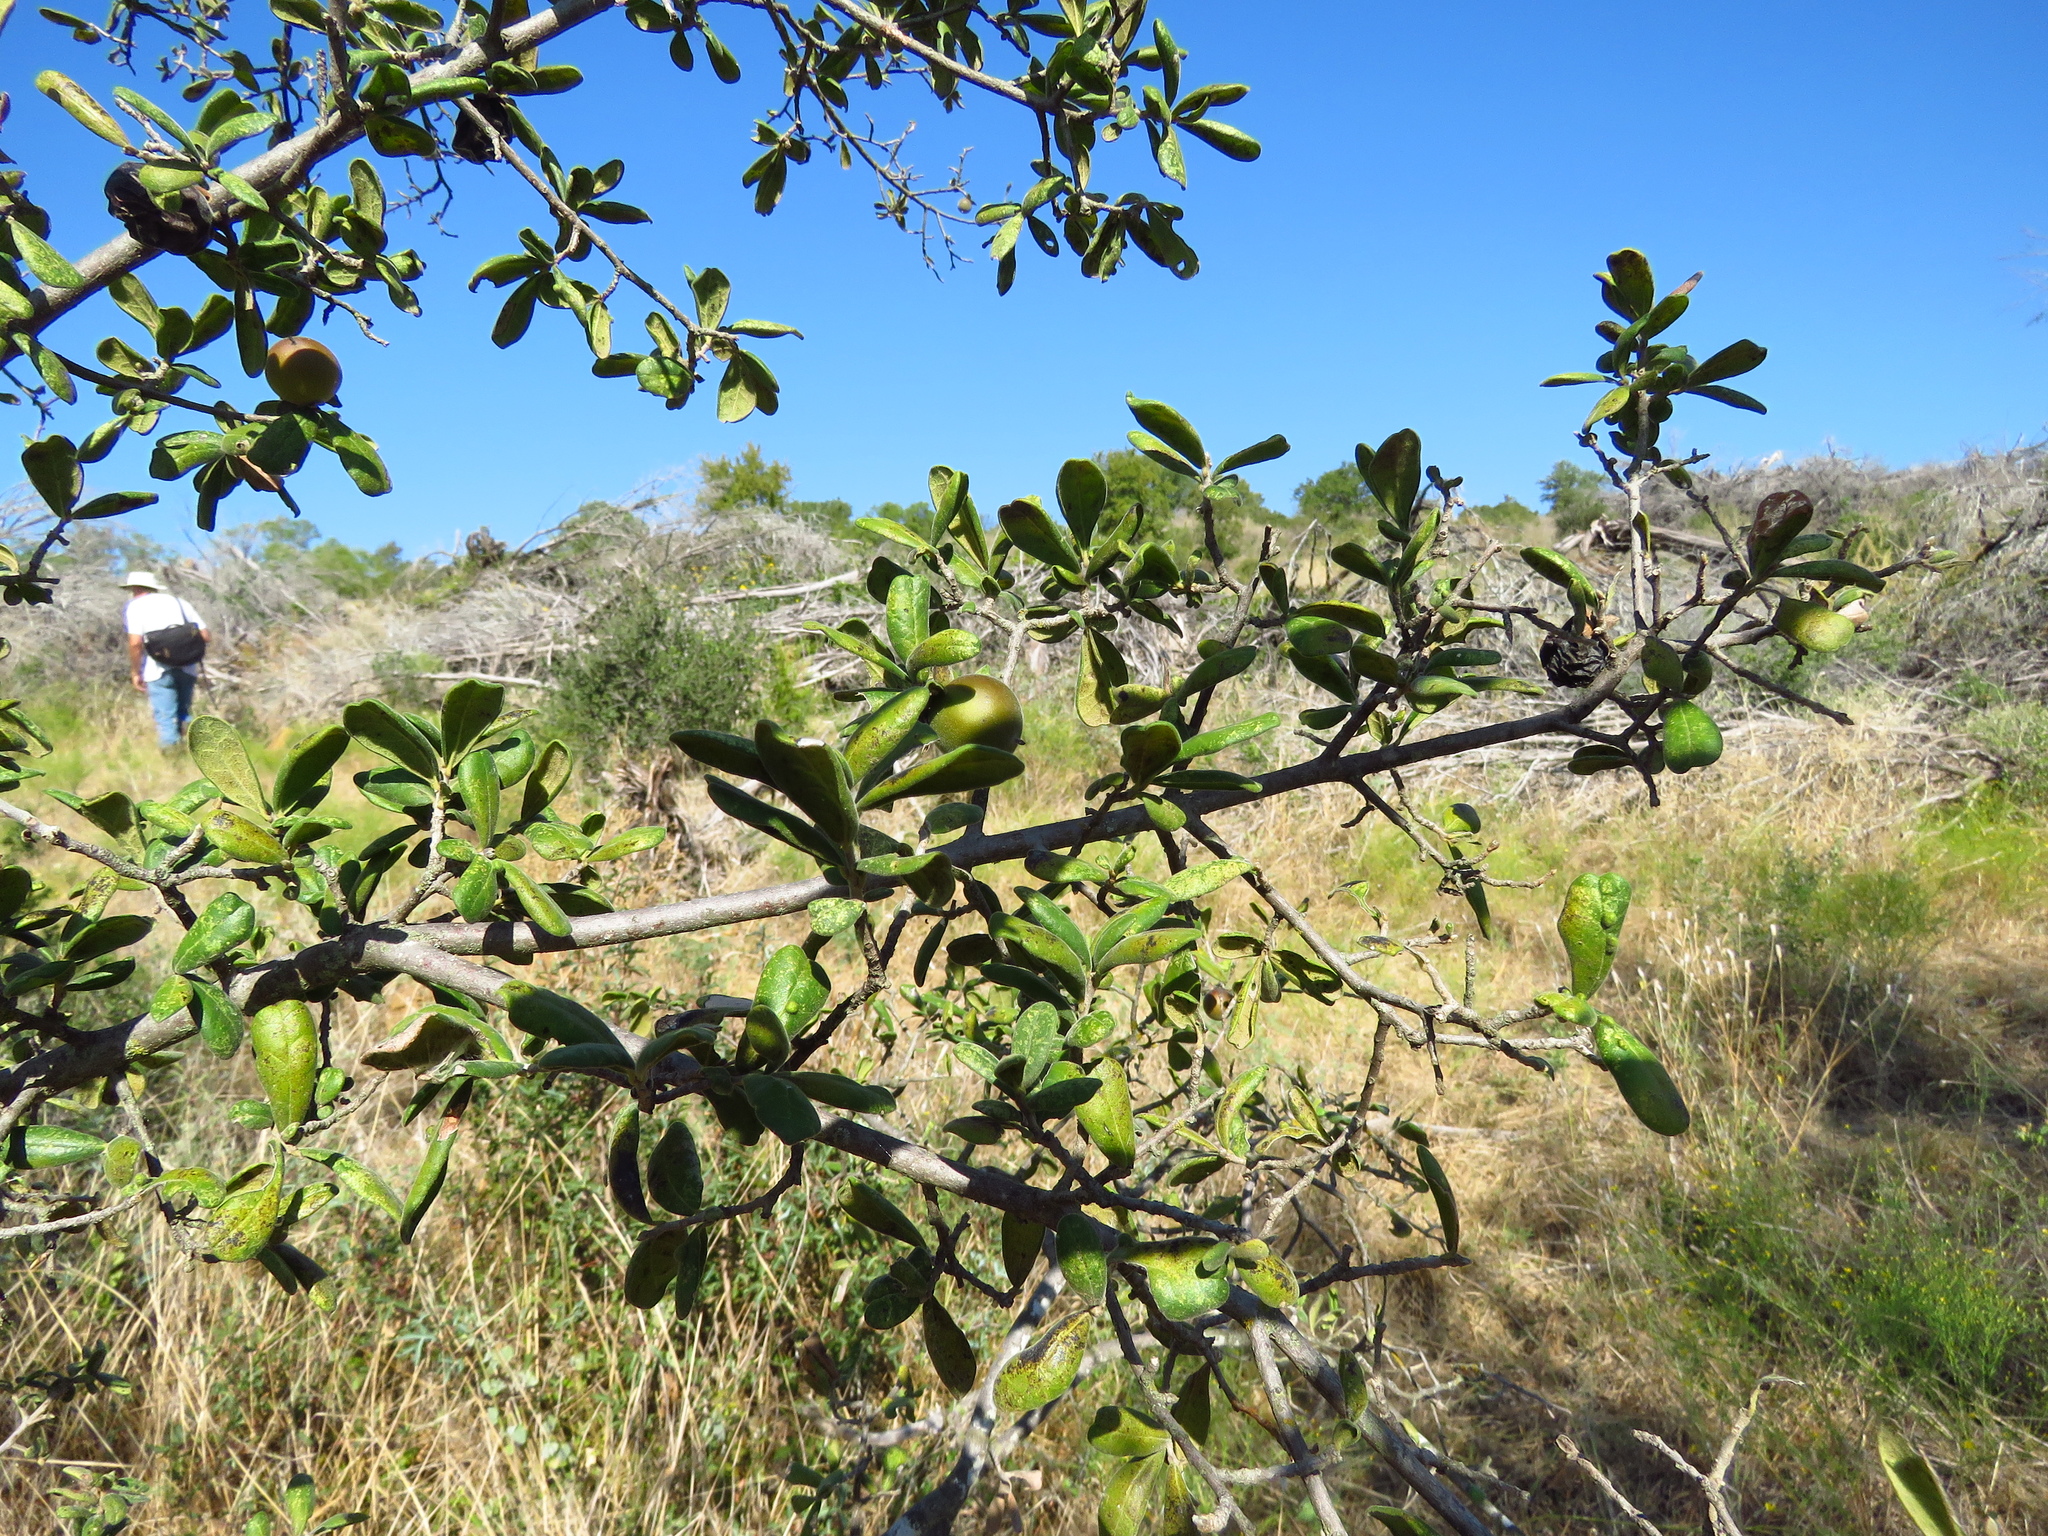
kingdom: Plantae
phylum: Tracheophyta
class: Magnoliopsida
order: Ericales
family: Ebenaceae
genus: Diospyros
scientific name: Diospyros texana
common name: Texas persimmon
